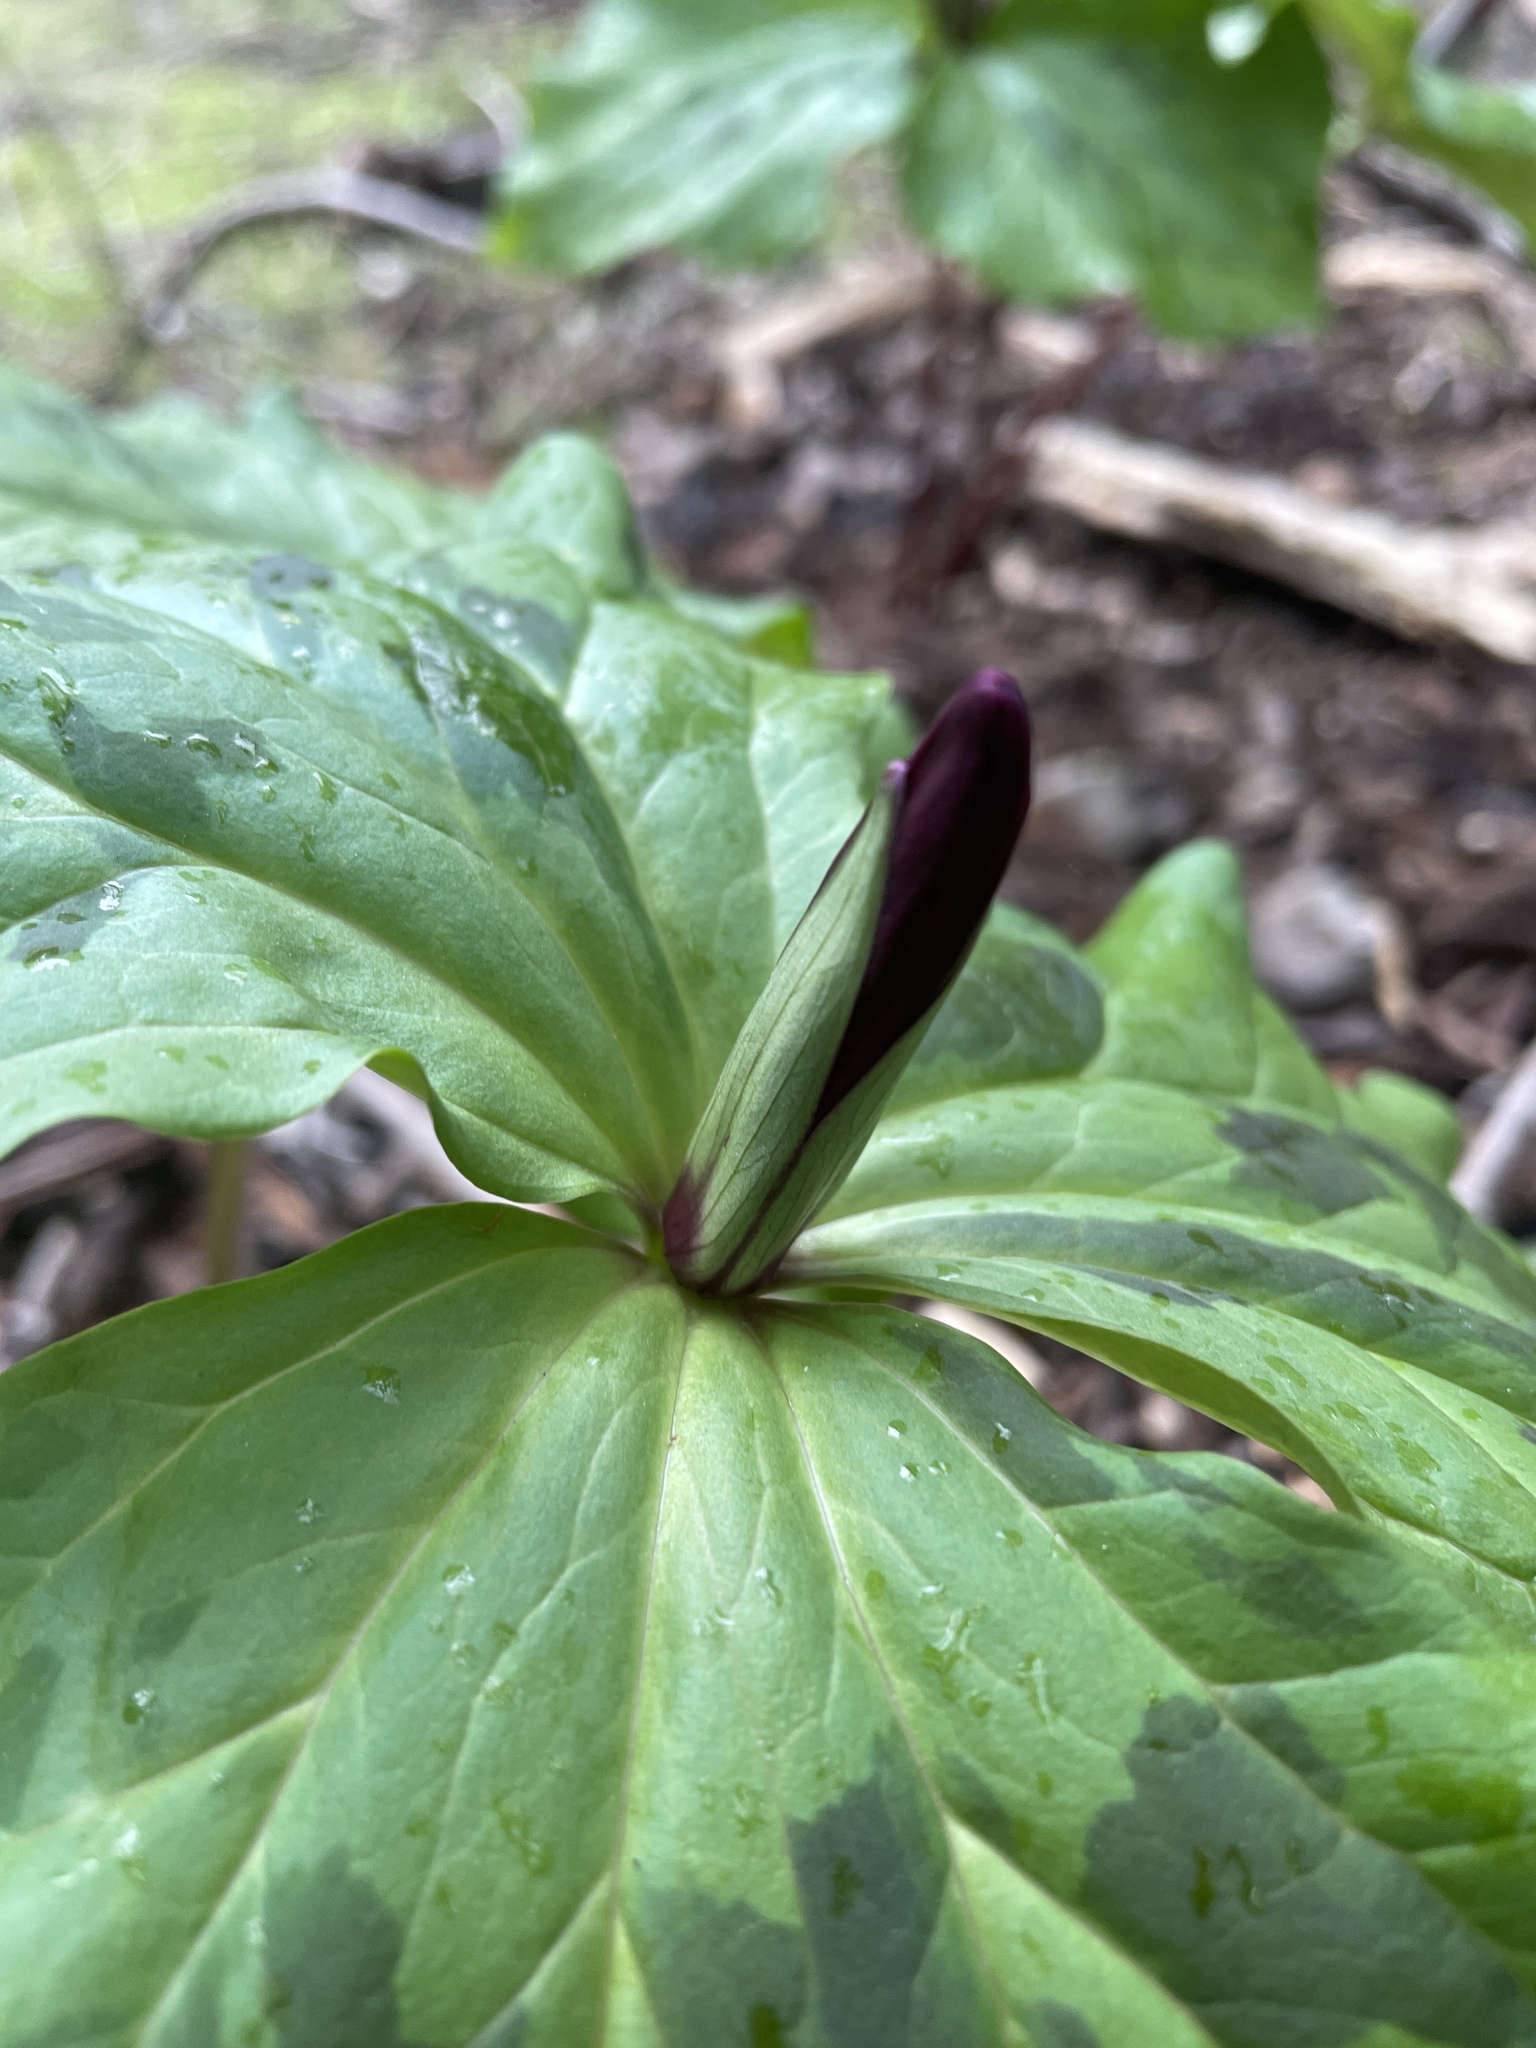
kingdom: Plantae
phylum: Tracheophyta
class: Liliopsida
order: Liliales
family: Melanthiaceae
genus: Trillium
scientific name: Trillium chloropetalum
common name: Giant trillium
